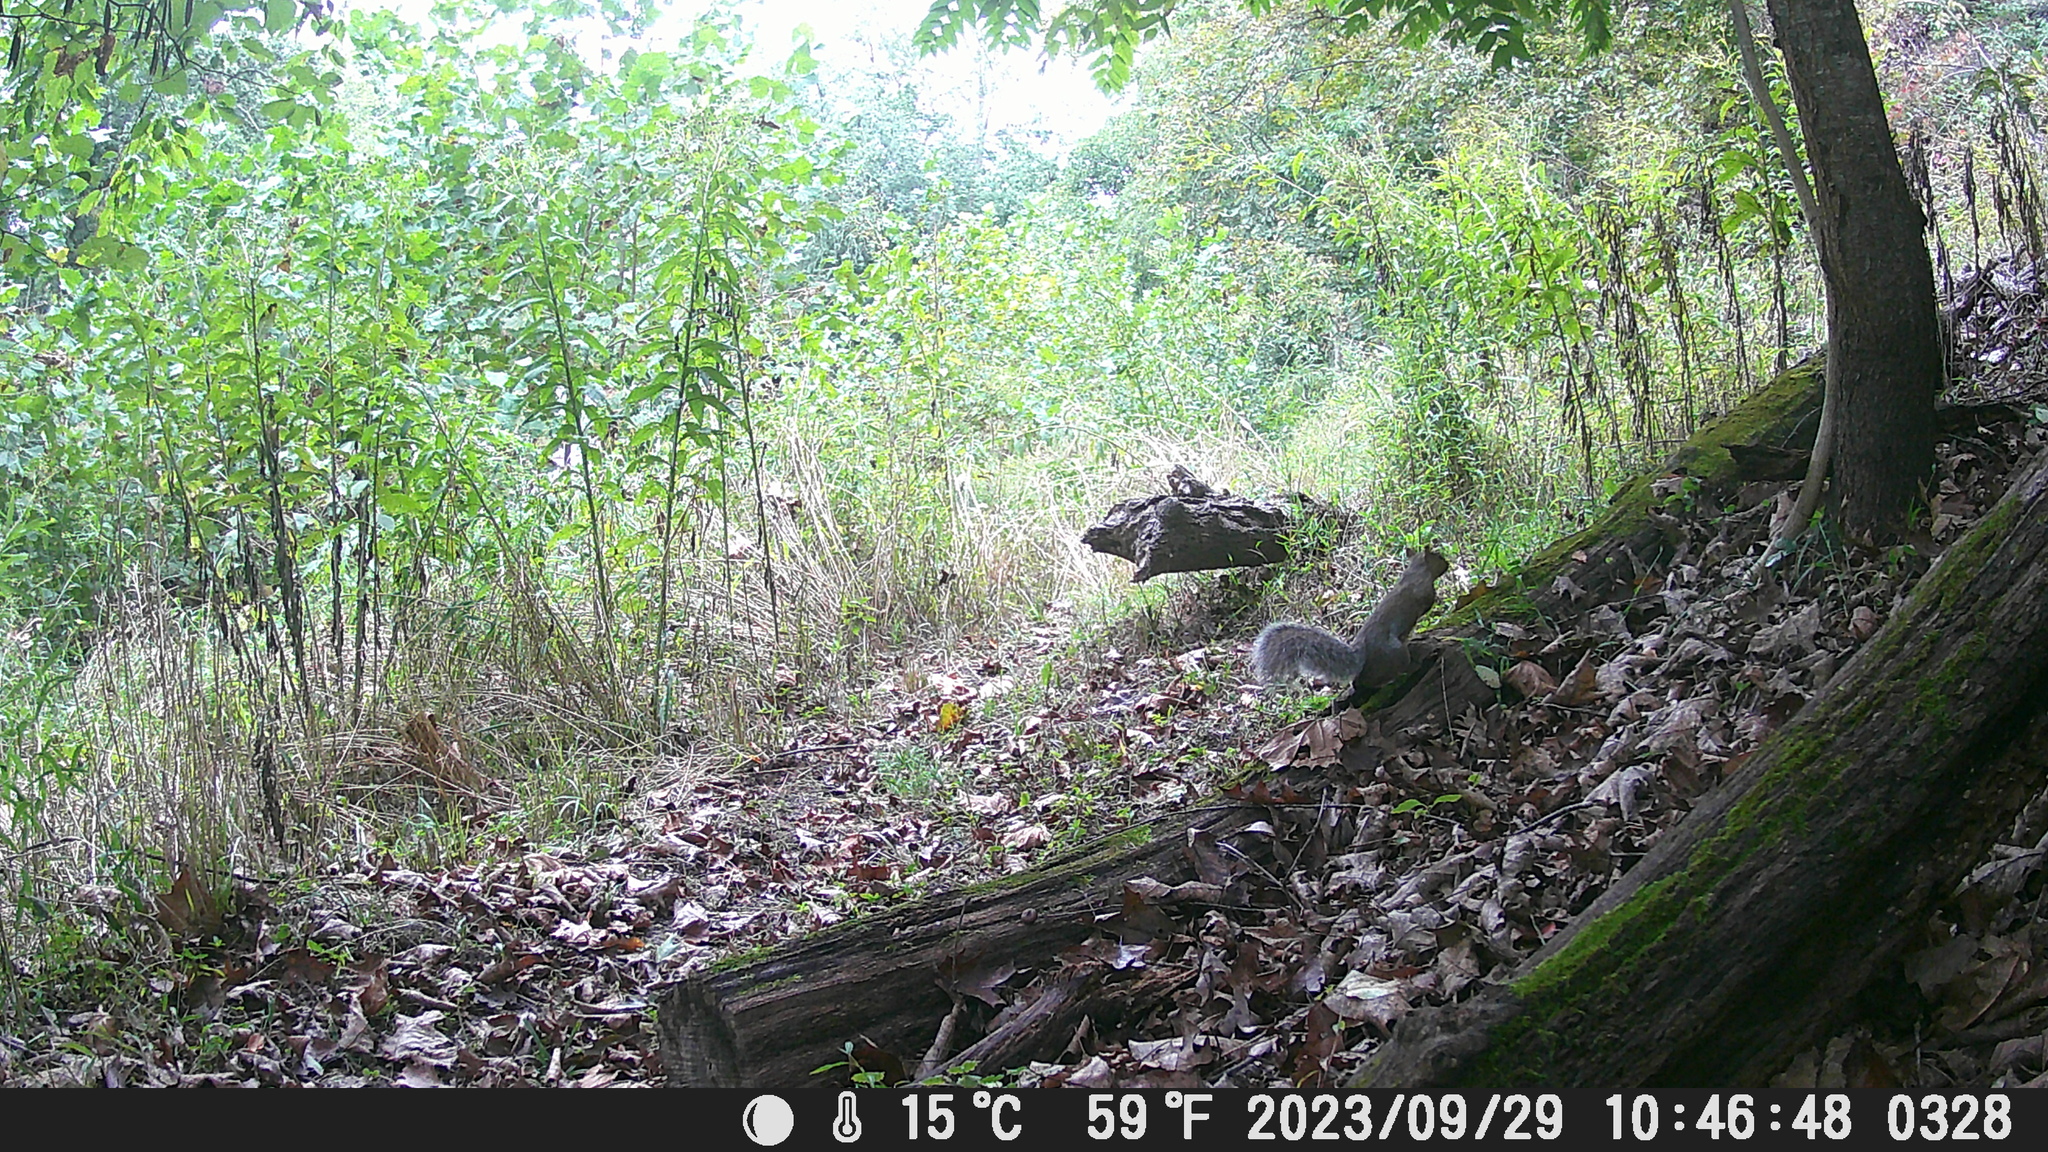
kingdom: Animalia
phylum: Chordata
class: Mammalia
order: Rodentia
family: Sciuridae
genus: Sciurus
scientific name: Sciurus carolinensis
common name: Eastern gray squirrel
